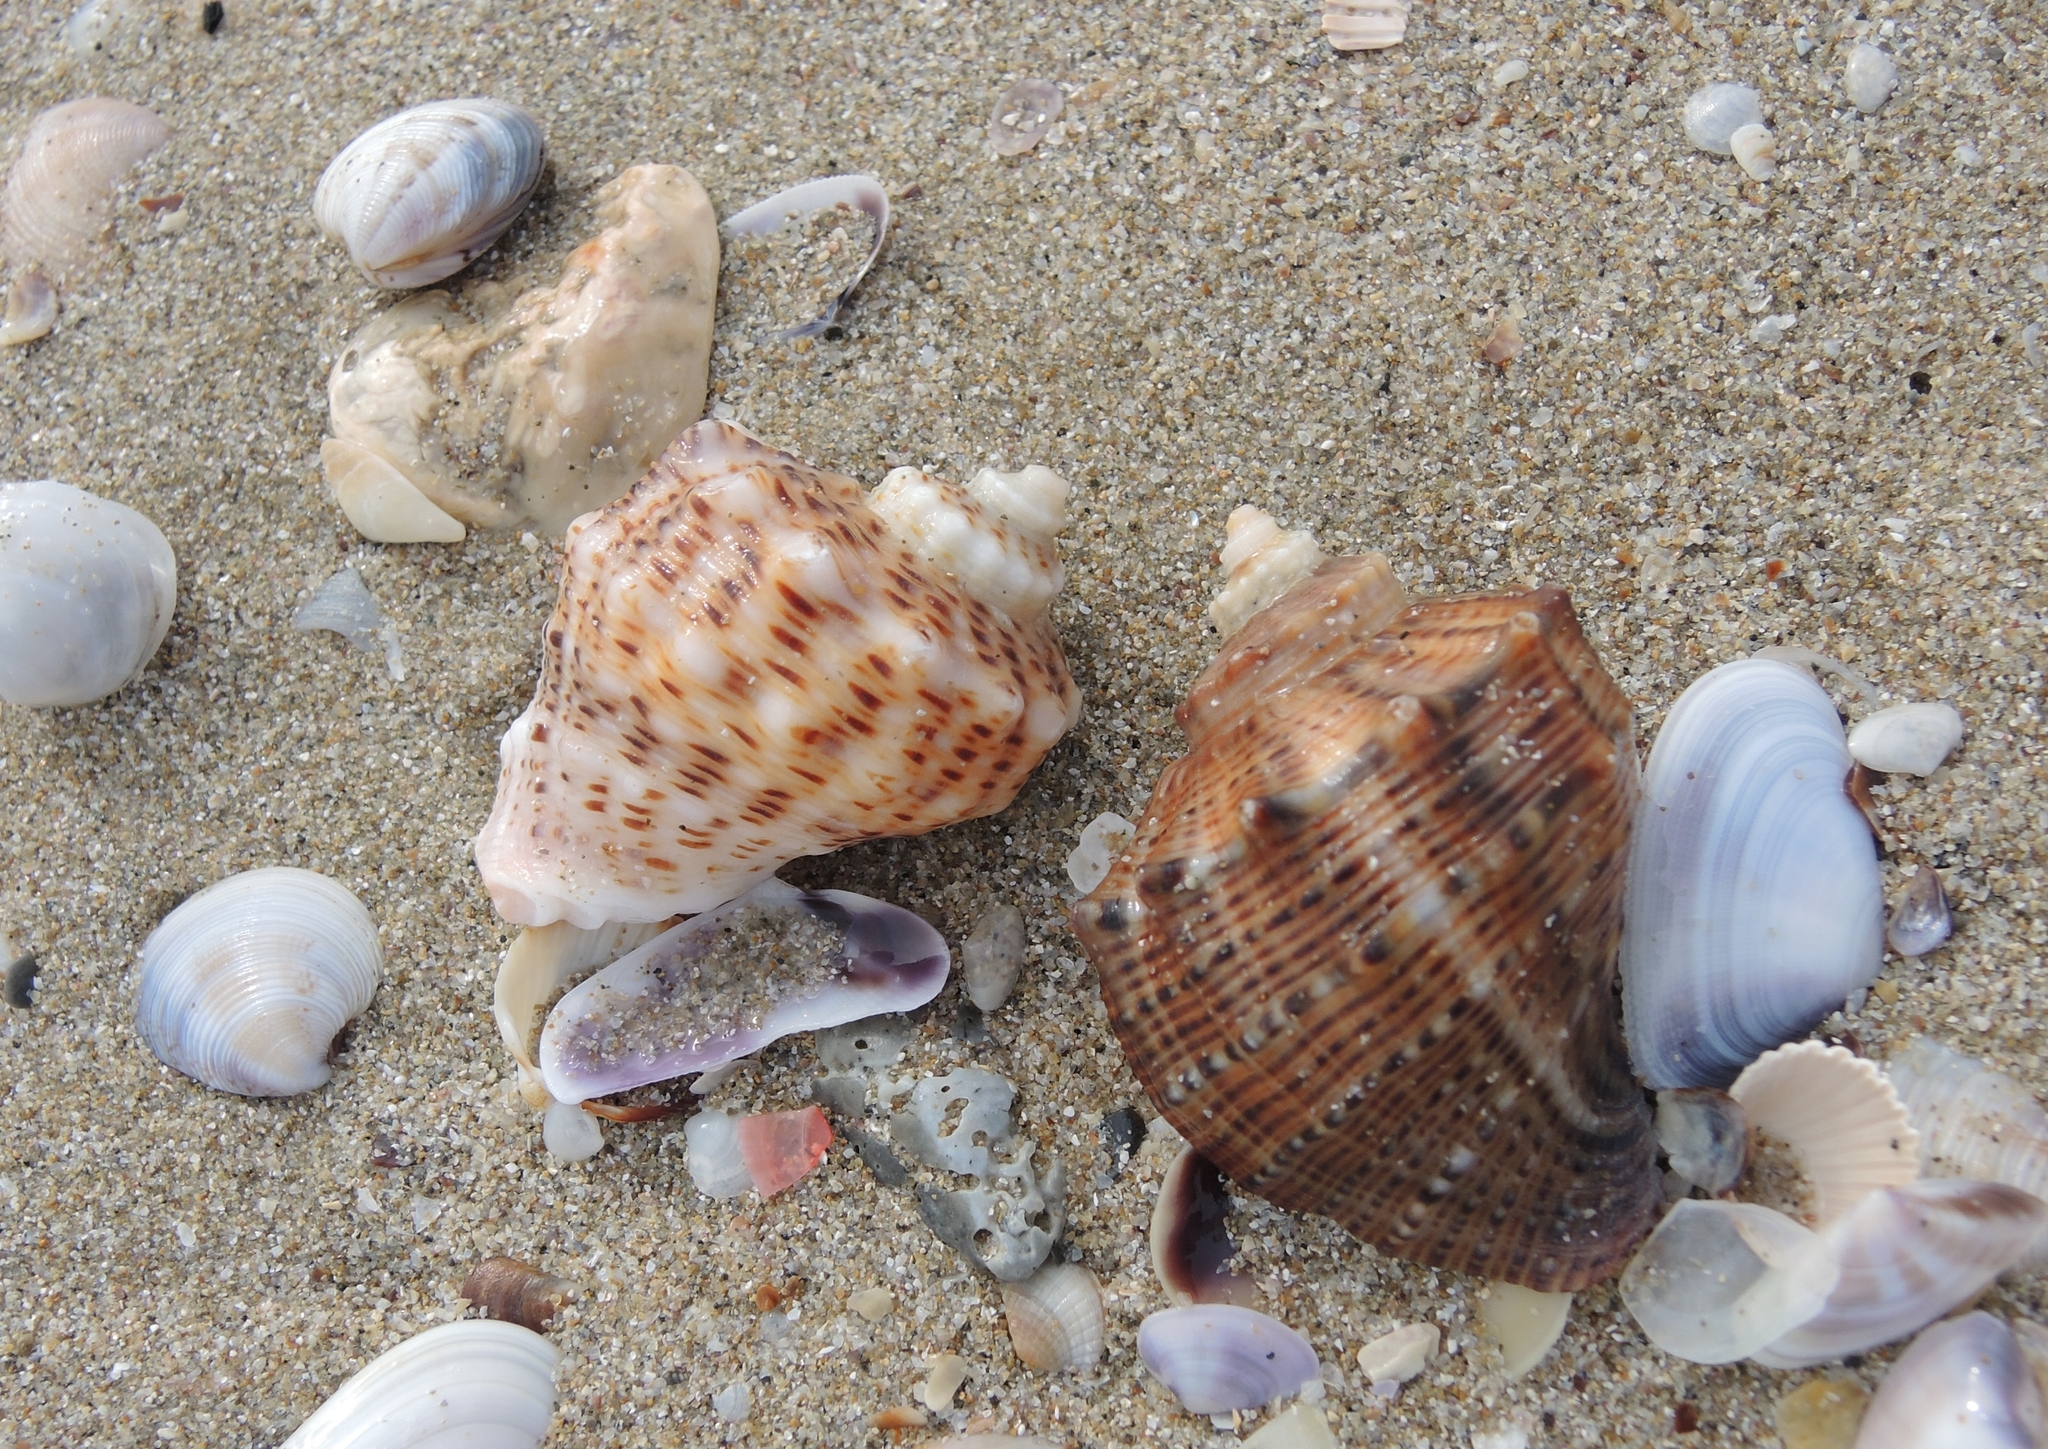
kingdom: Animalia
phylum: Mollusca
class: Gastropoda
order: Neogastropoda
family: Muricidae
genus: Rapana
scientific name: Rapana venosa
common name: Veined rapa whelk
